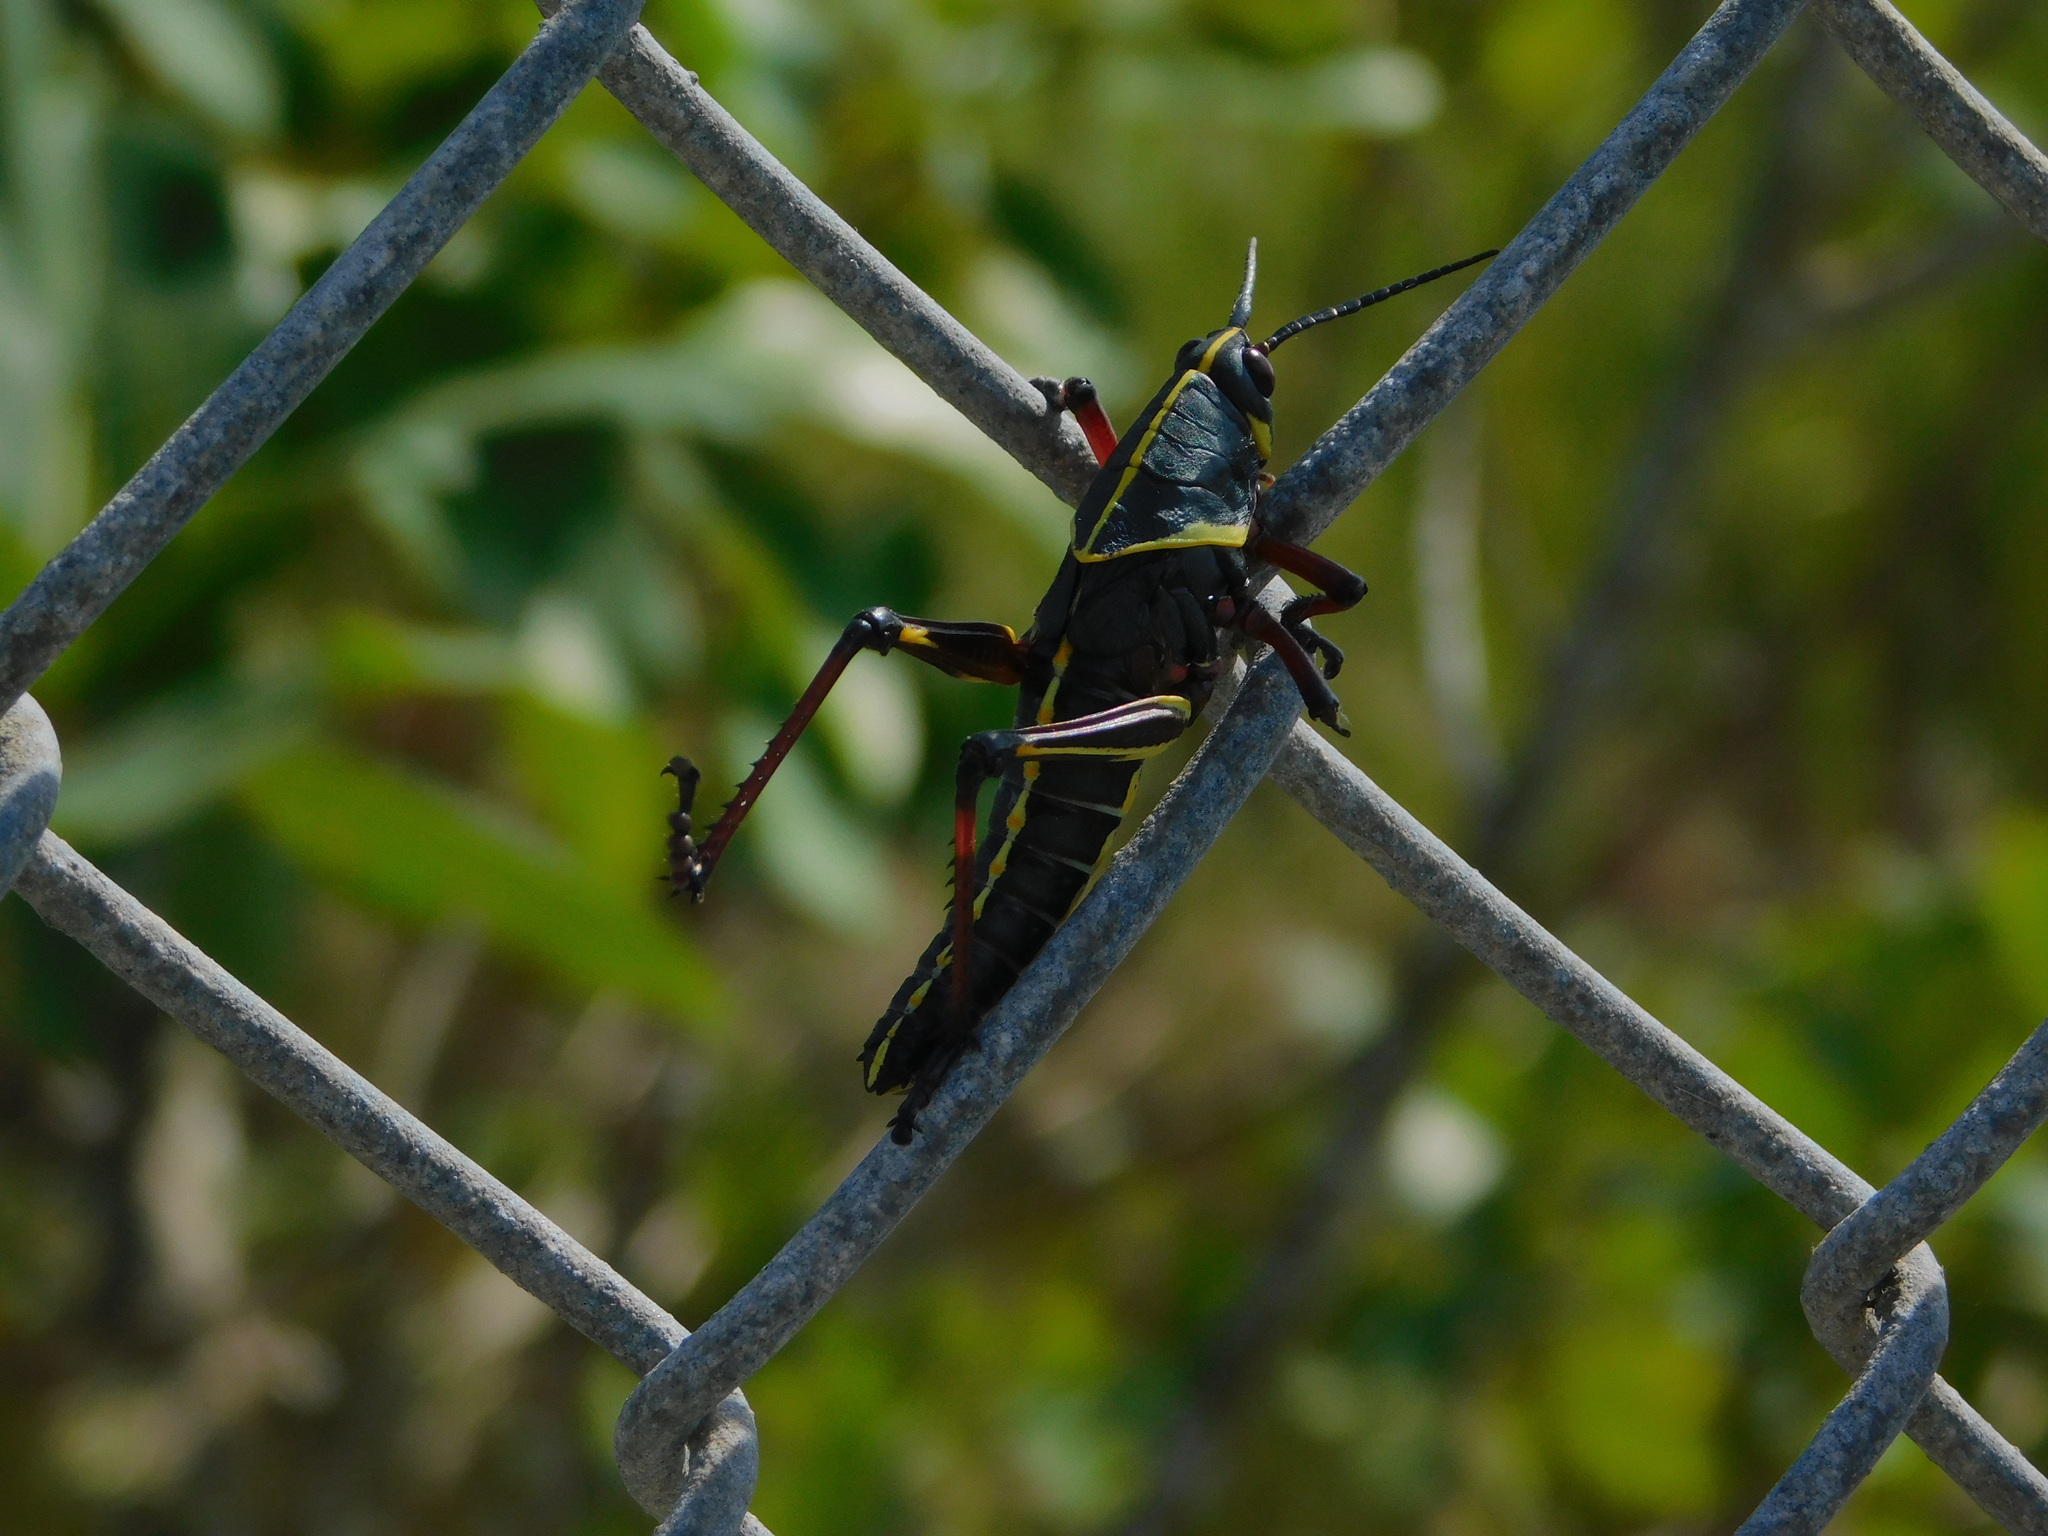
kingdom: Animalia
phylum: Arthropoda
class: Insecta
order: Orthoptera
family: Romaleidae
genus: Romalea
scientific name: Romalea microptera
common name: Eastern lubber grasshopper
